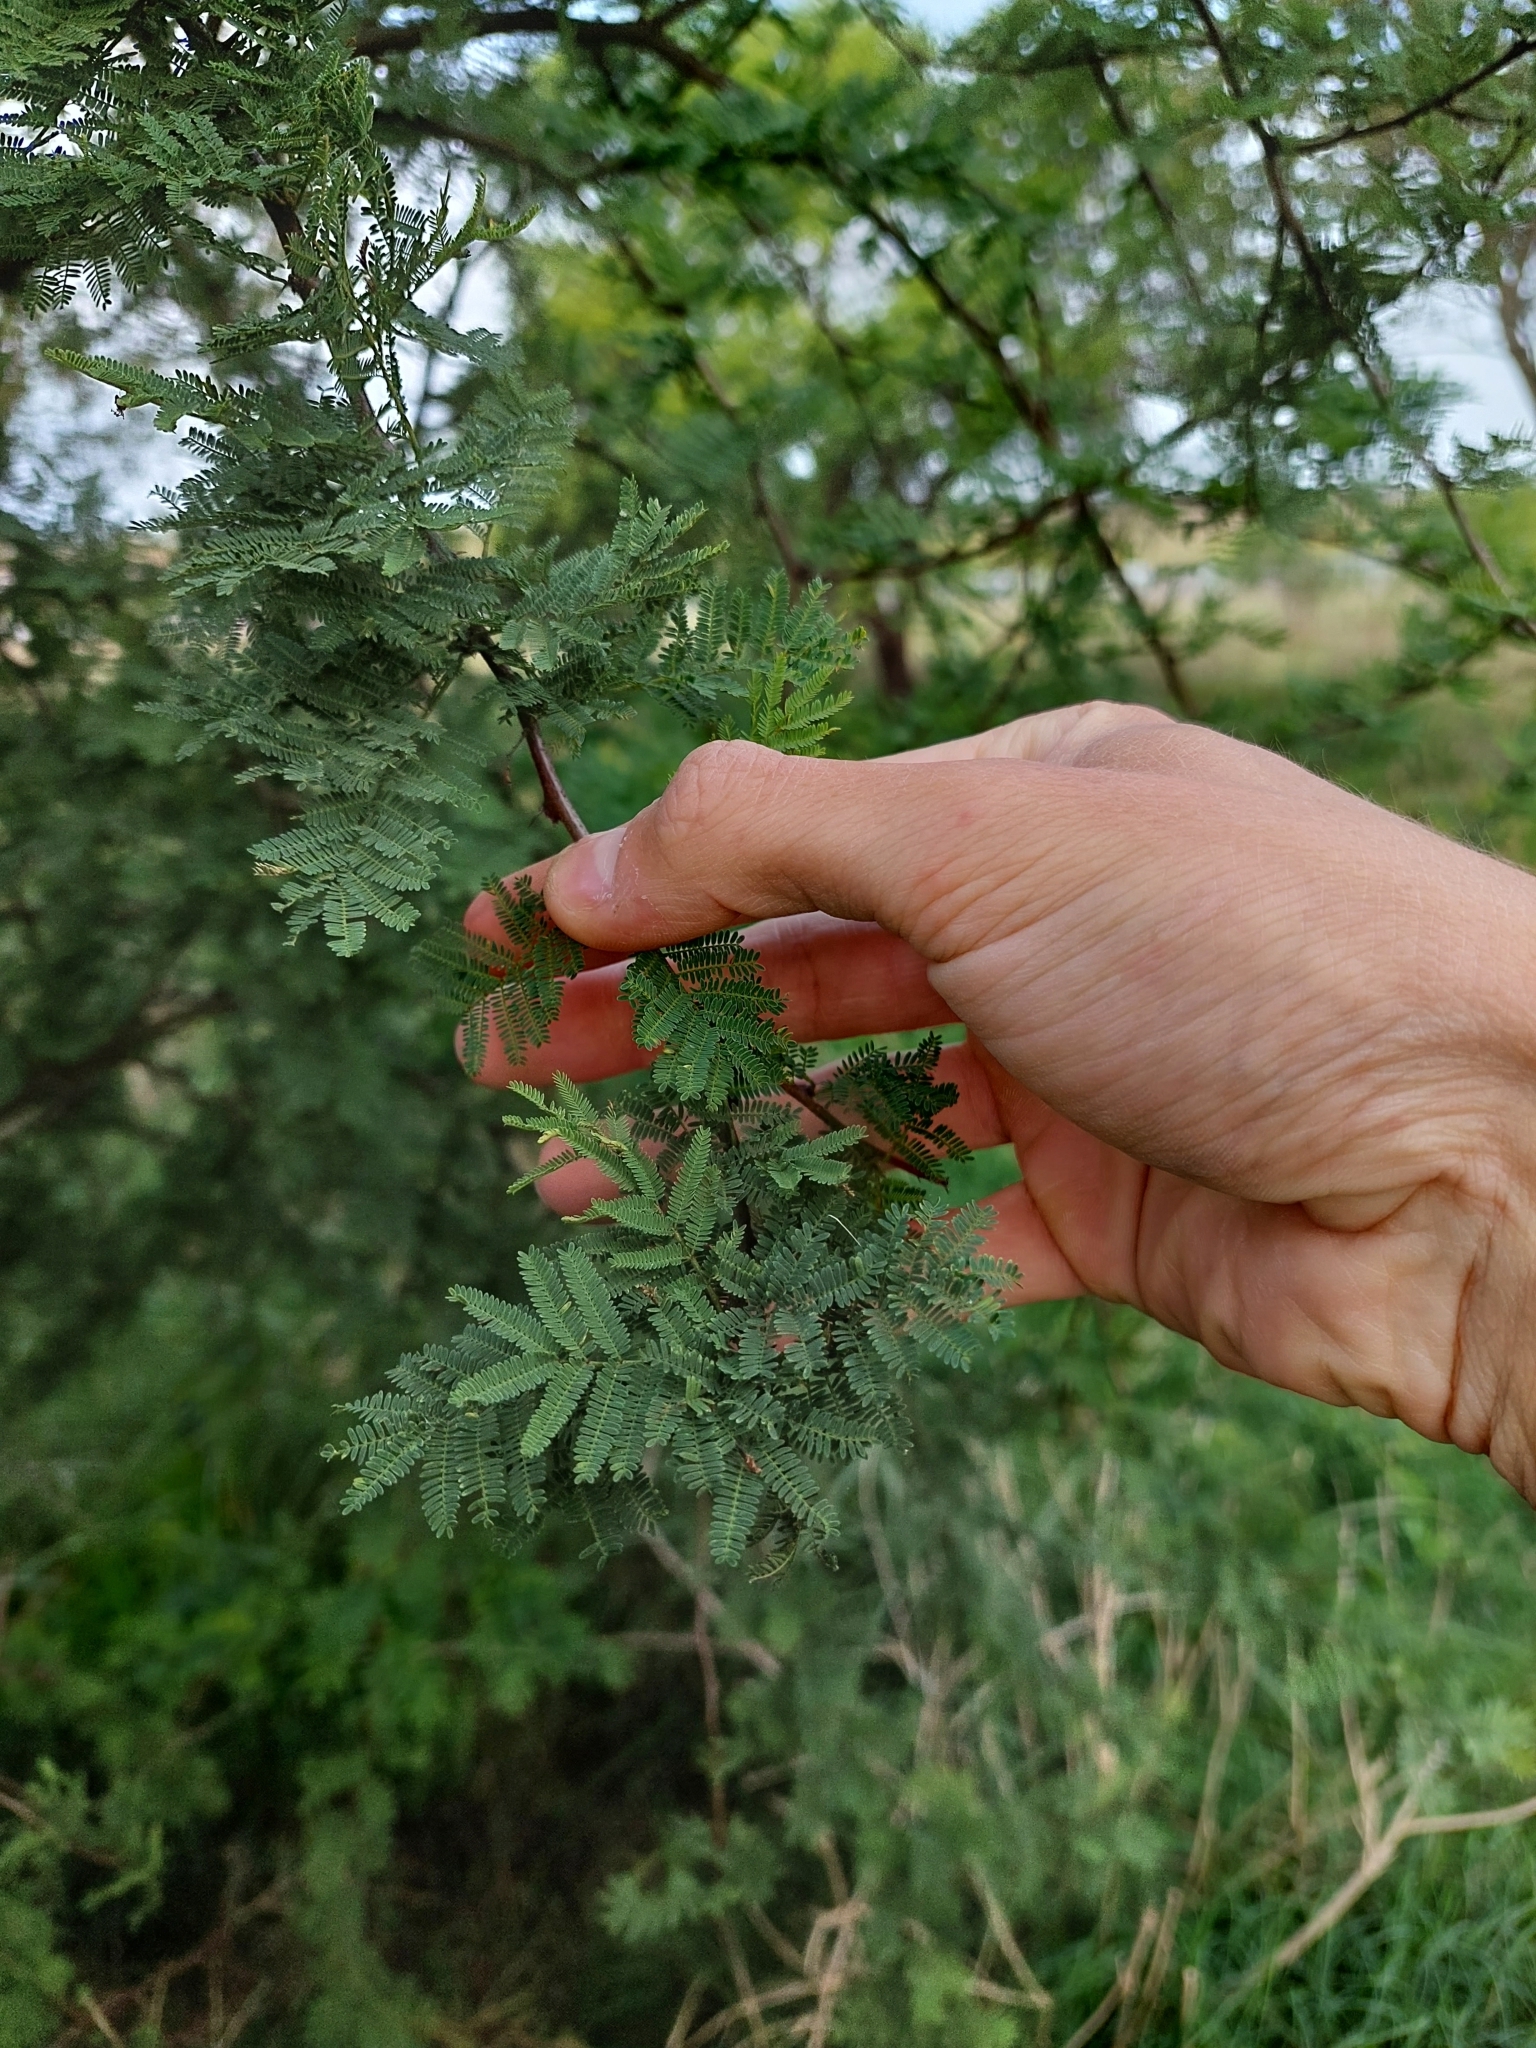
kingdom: Plantae
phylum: Tracheophyta
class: Magnoliopsida
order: Fabales
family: Fabaceae
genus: Vachellia
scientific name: Vachellia caven
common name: Roman cassie
